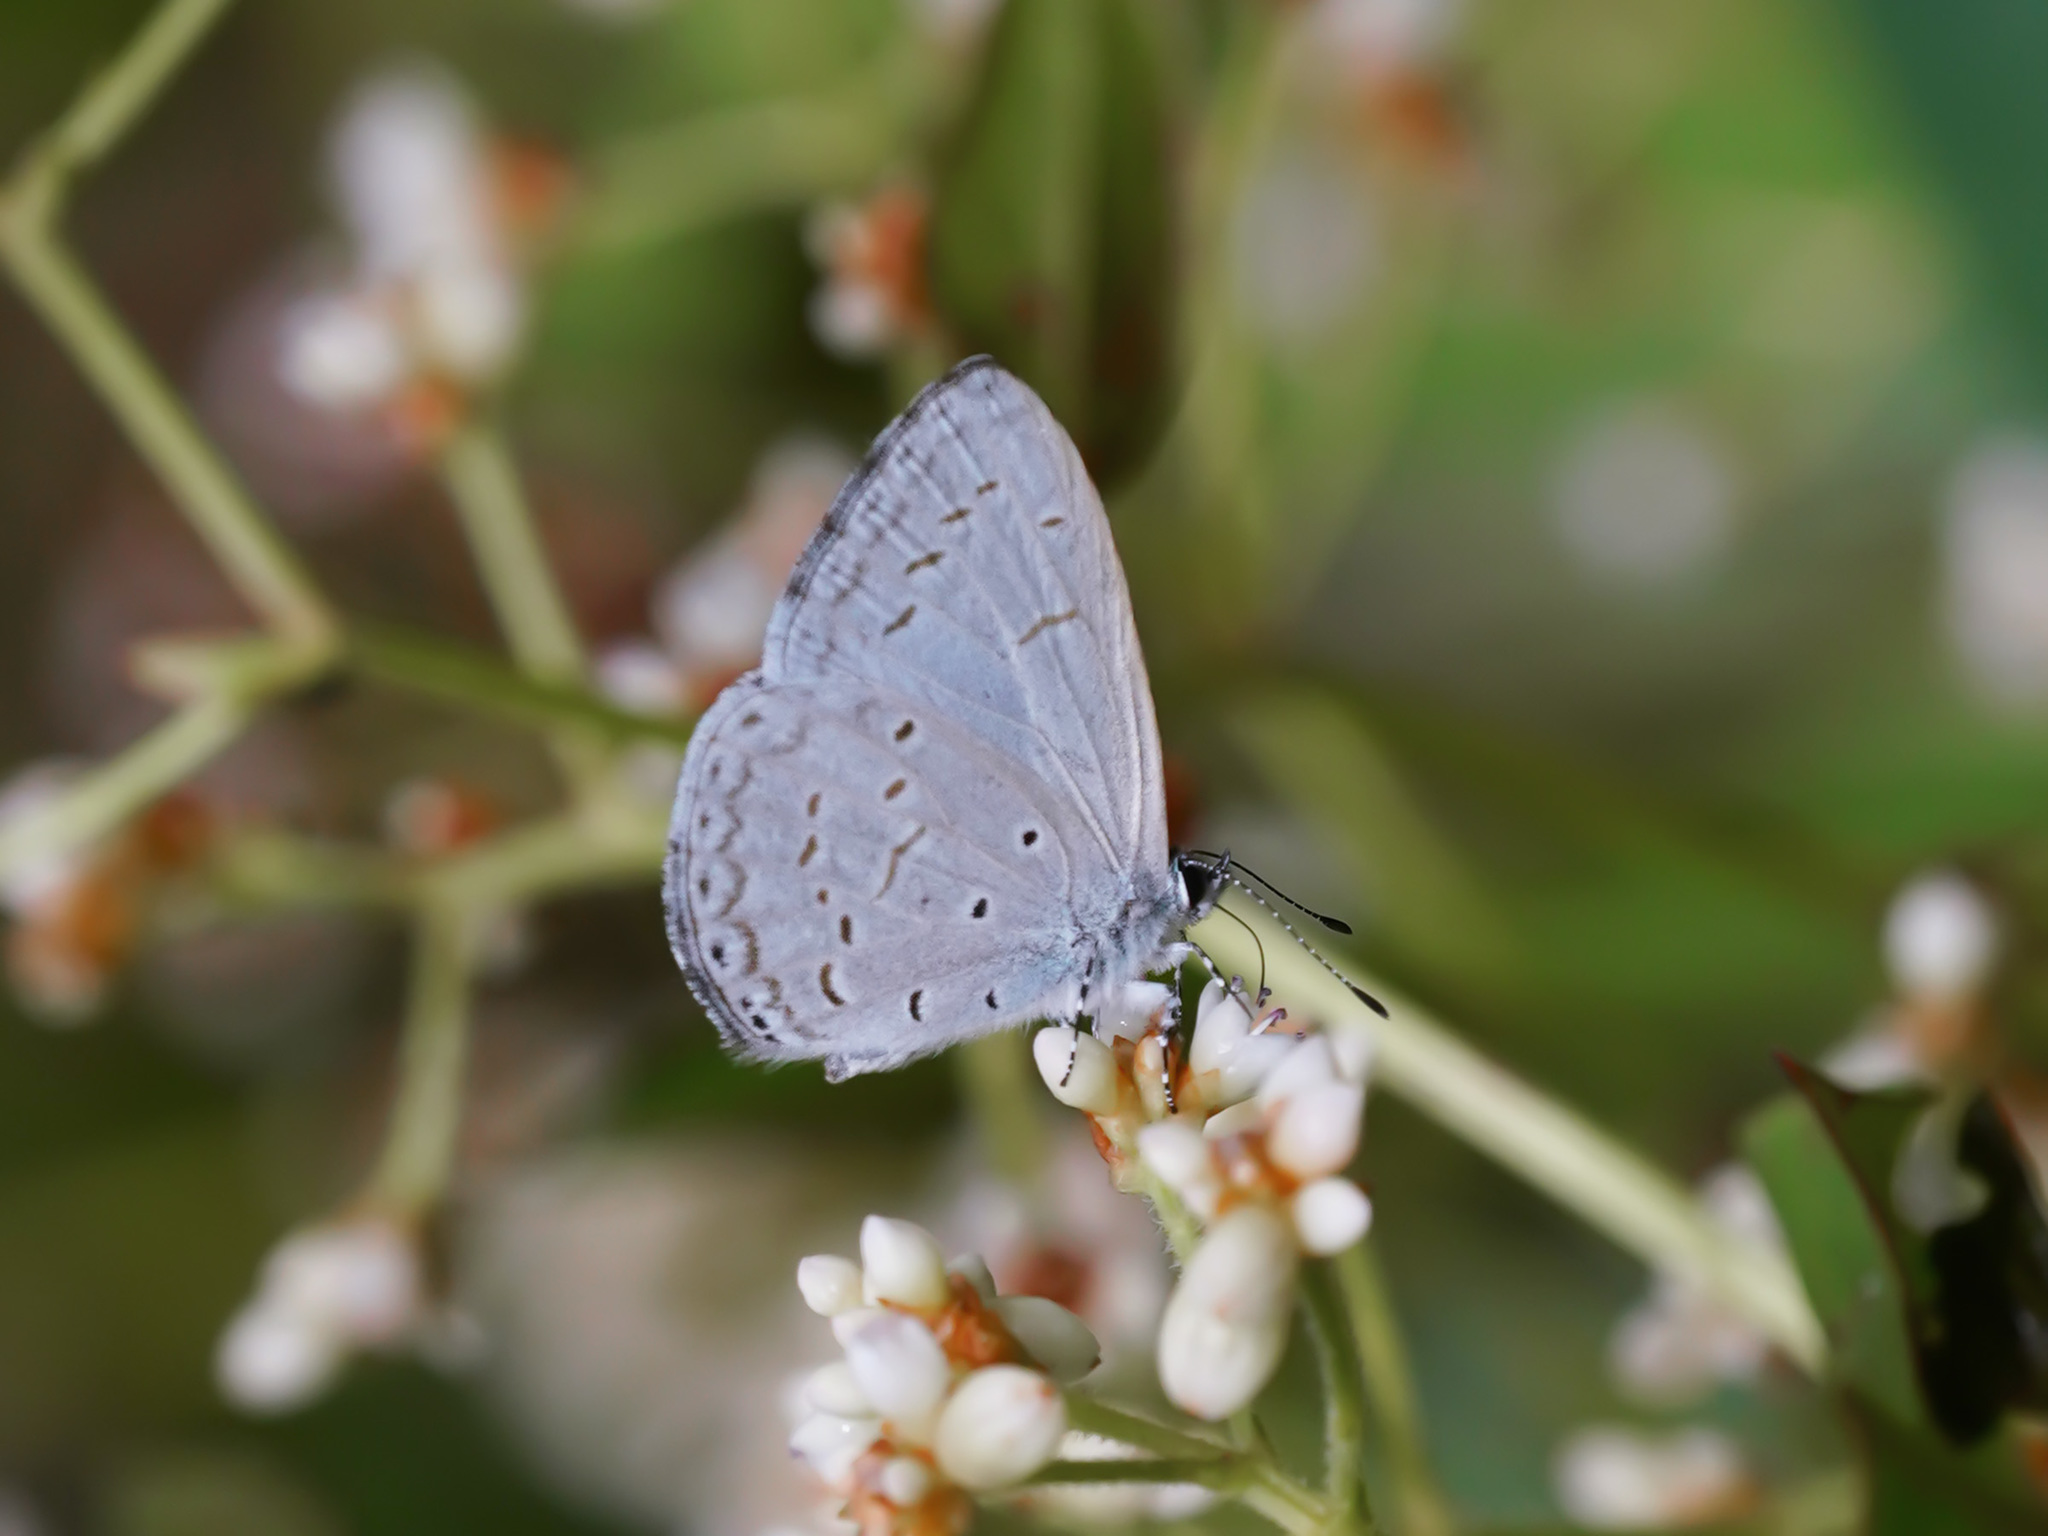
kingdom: Animalia
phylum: Arthropoda
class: Insecta
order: Lepidoptera
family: Lycaenidae
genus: Udara
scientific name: Udara
